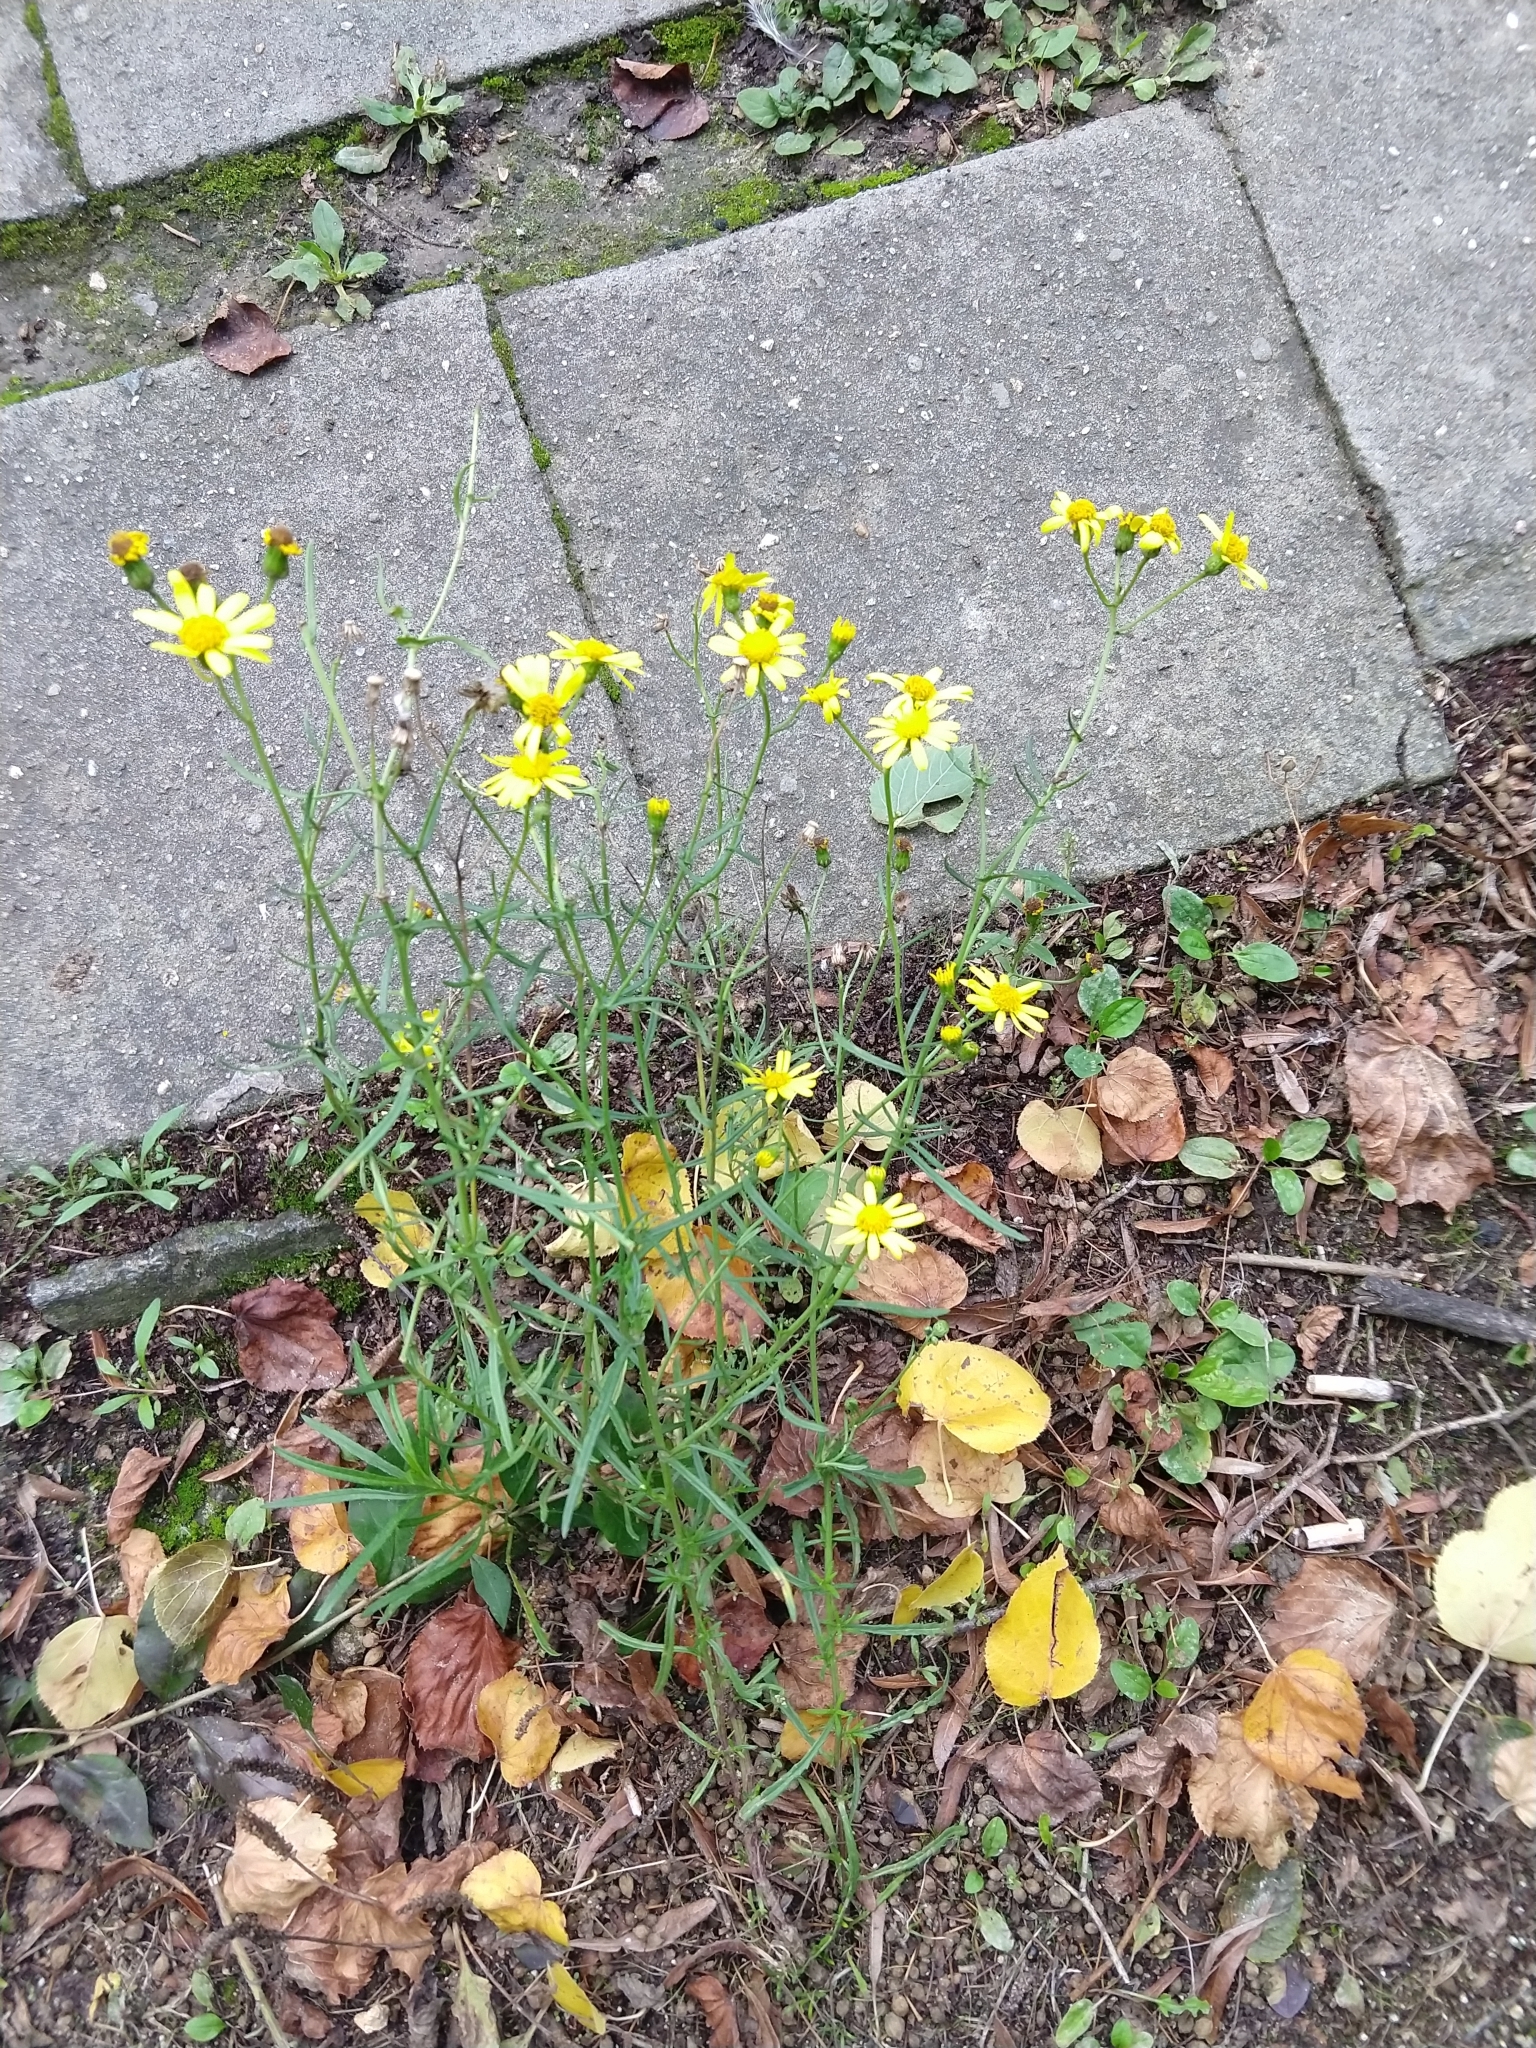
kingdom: Plantae
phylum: Tracheophyta
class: Magnoliopsida
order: Asterales
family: Asteraceae
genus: Senecio
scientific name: Senecio inaequidens
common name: Narrow-leaved ragwort
